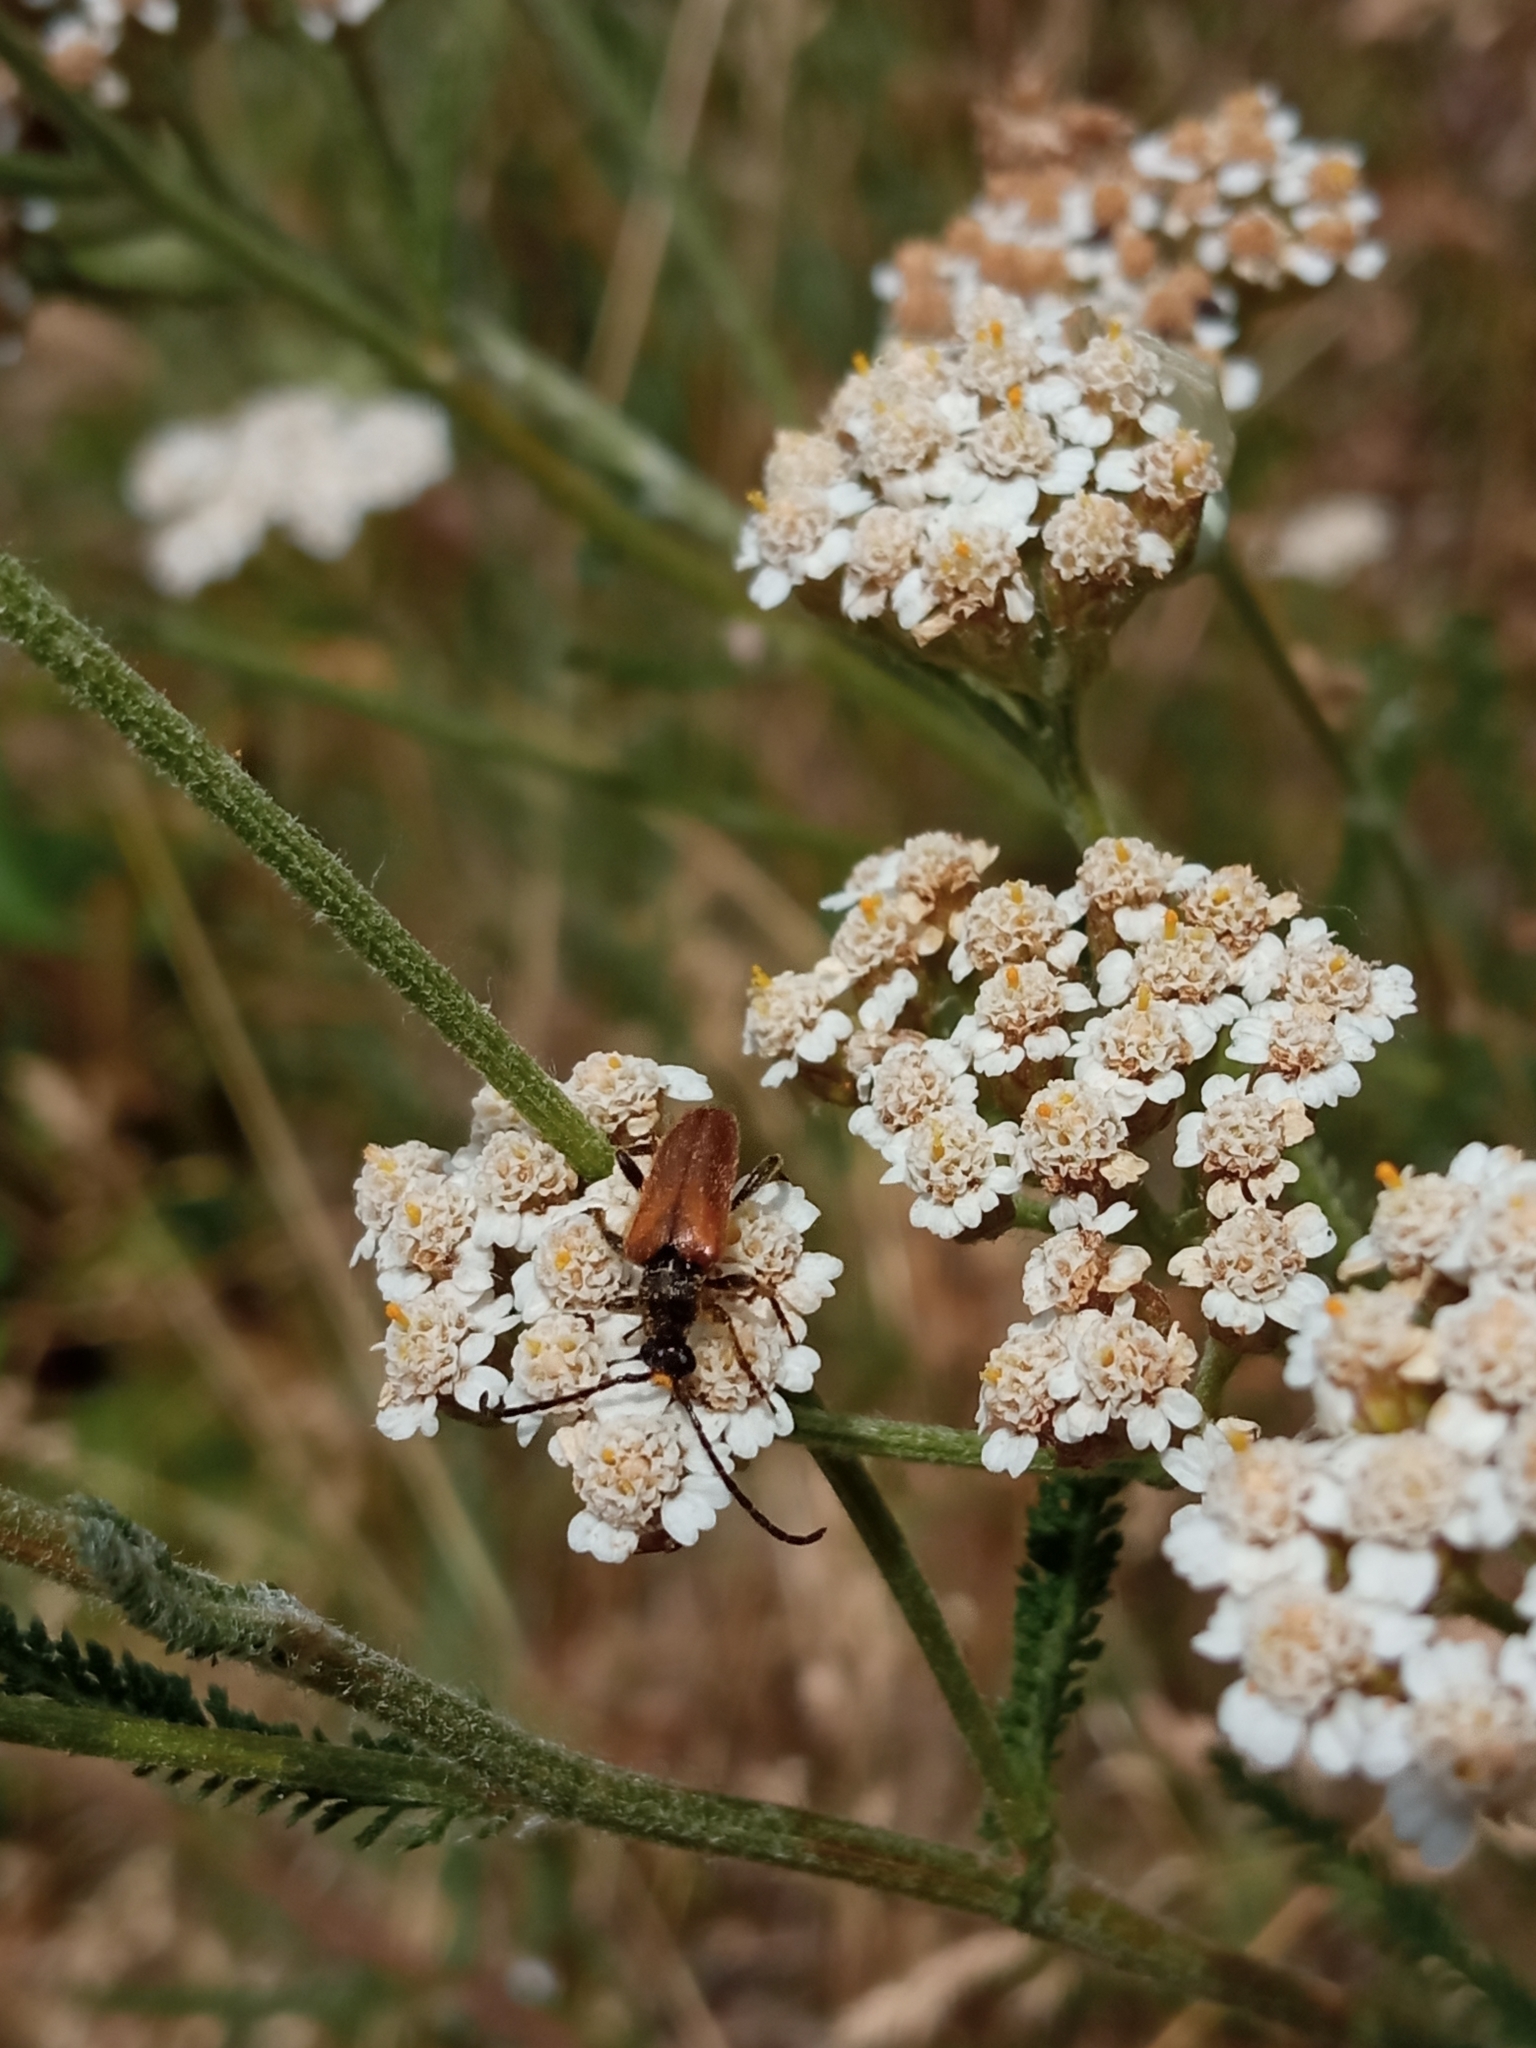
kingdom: Animalia
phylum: Arthropoda
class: Insecta
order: Coleoptera
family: Cerambycidae
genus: Pseudovadonia
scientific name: Pseudovadonia livida
